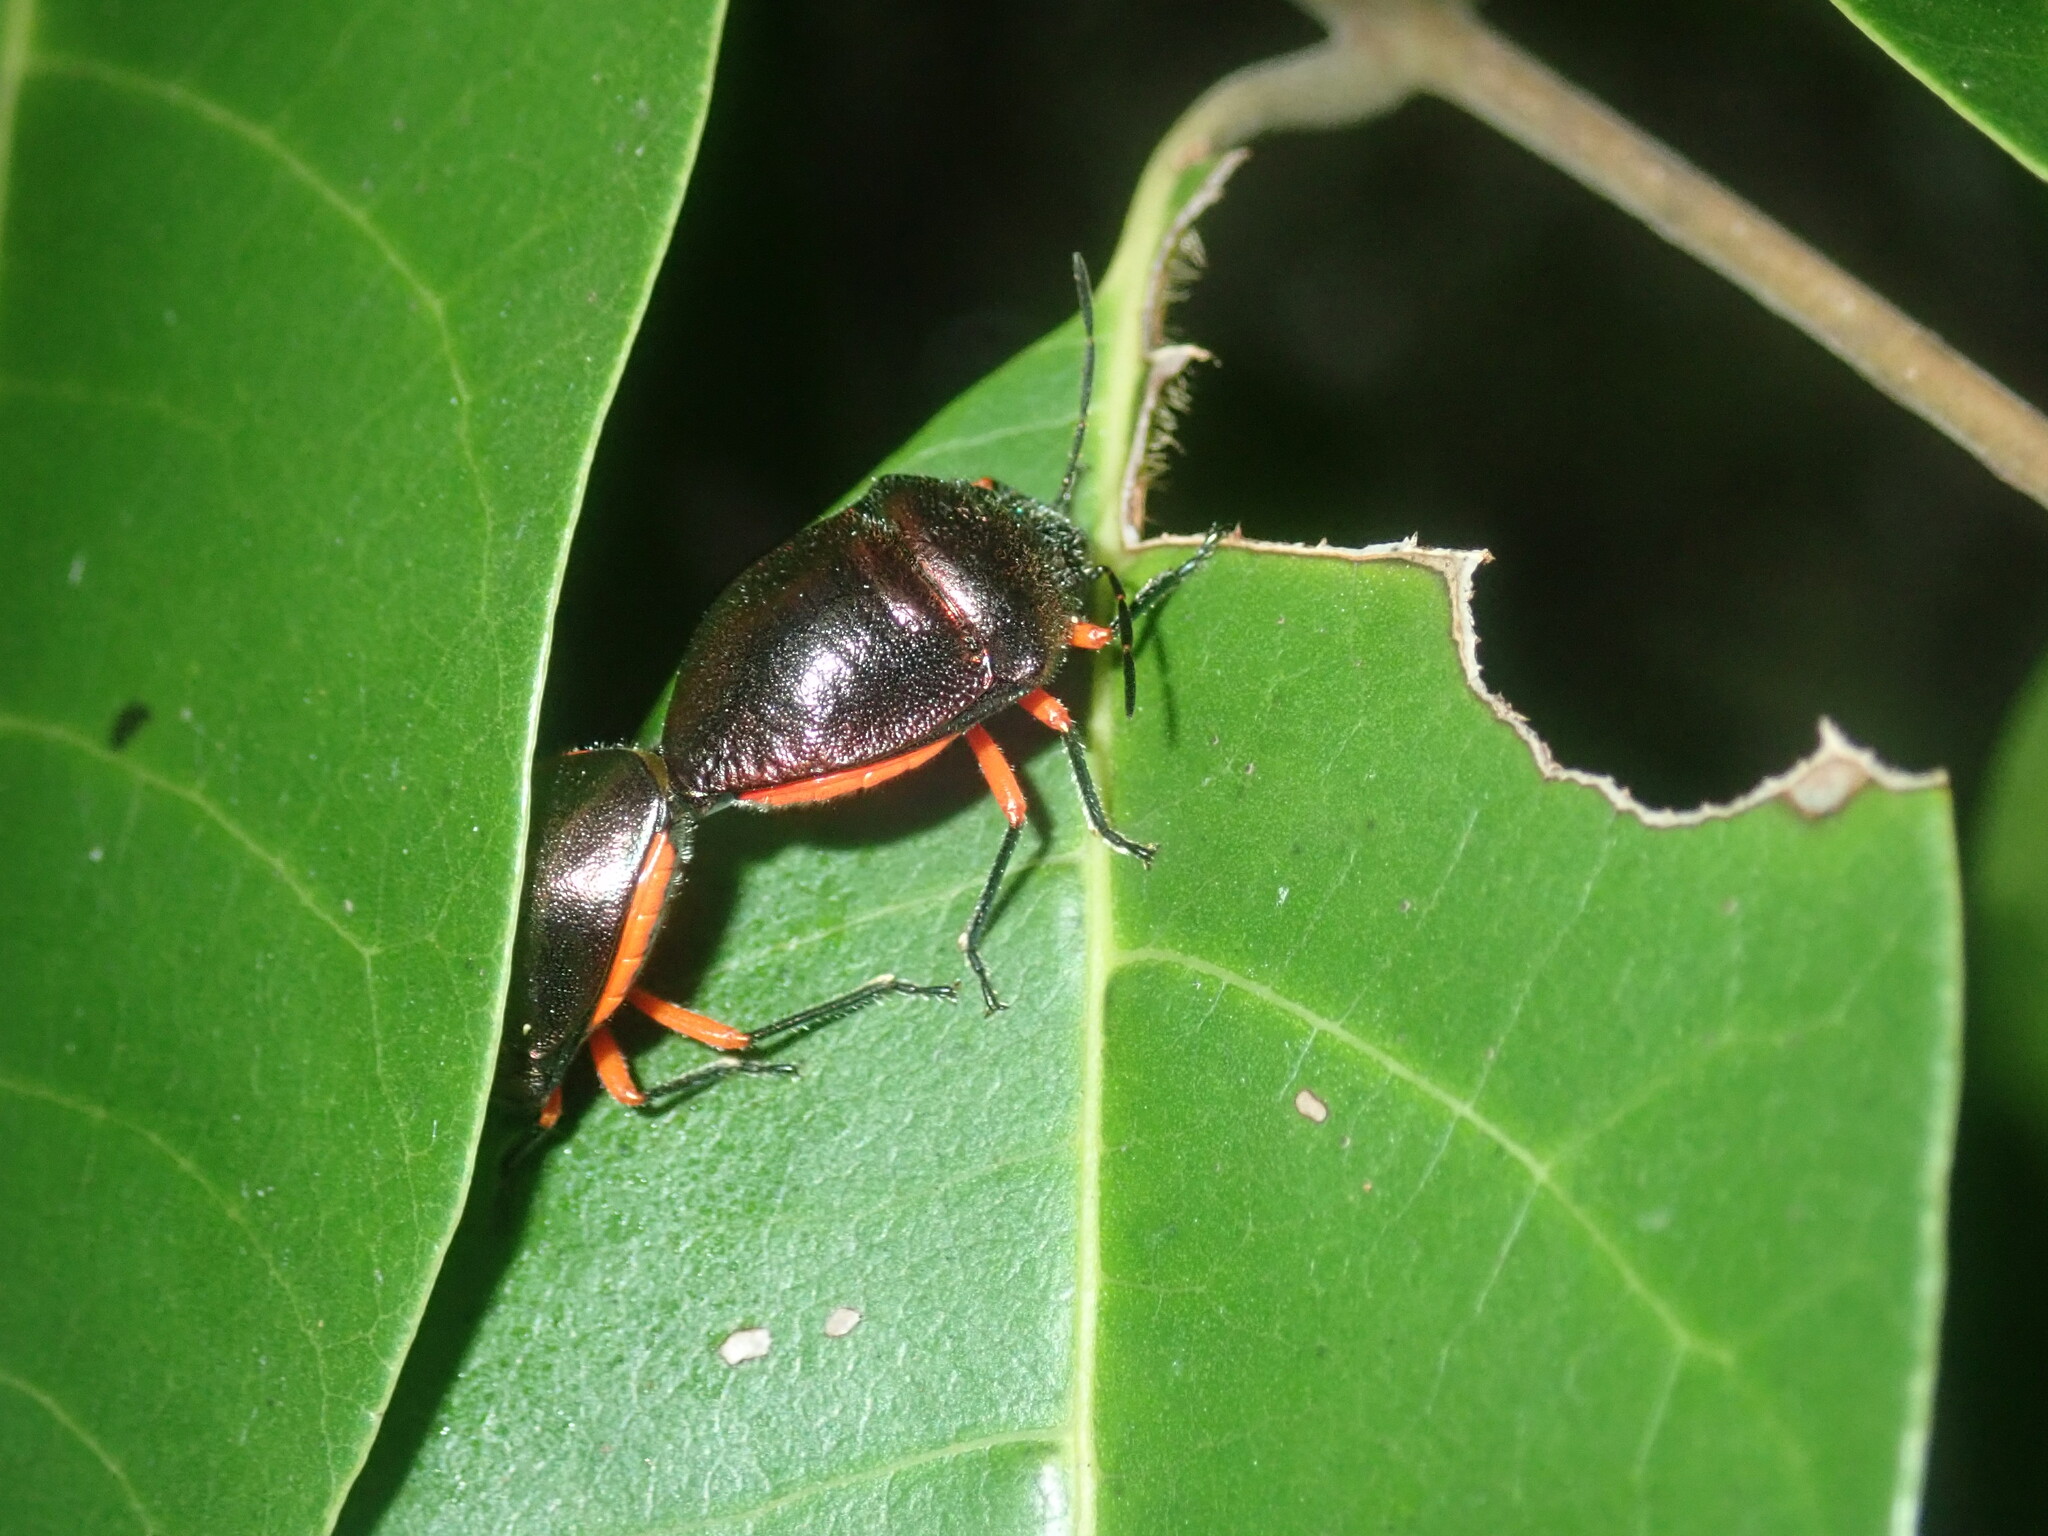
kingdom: Animalia
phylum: Arthropoda
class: Insecta
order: Hemiptera
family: Scutelleridae
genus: Lampromicra
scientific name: Lampromicra
